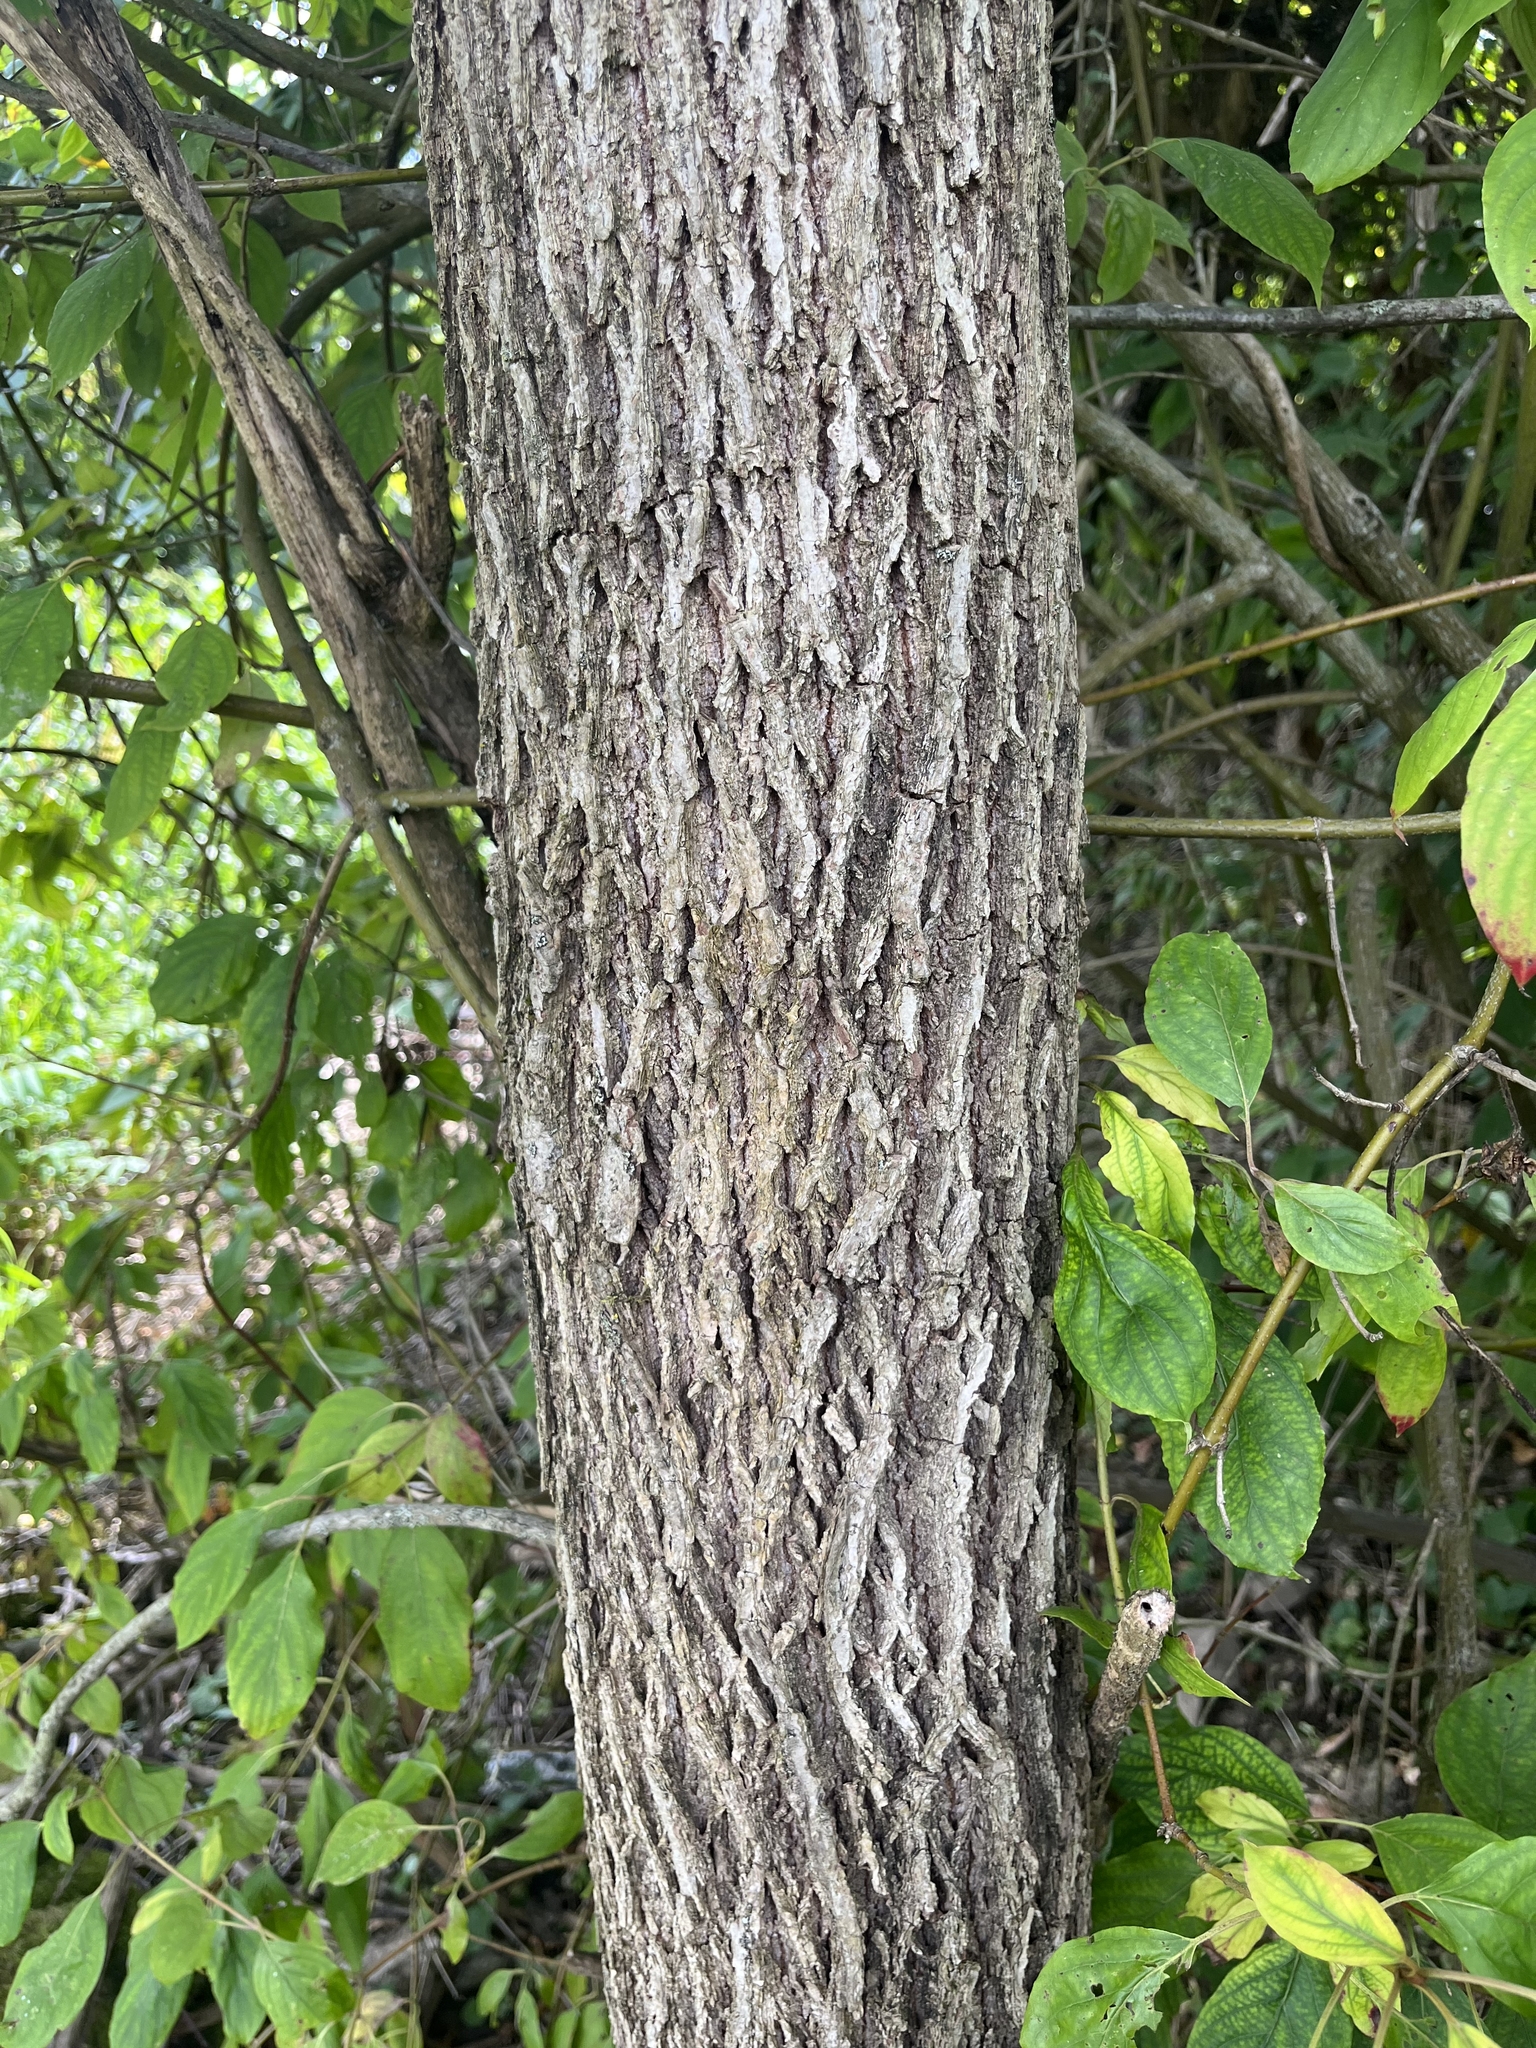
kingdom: Plantae
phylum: Tracheophyta
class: Magnoliopsida
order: Fagales
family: Juglandaceae
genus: Juglans
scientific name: Juglans nigra
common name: Black walnut
